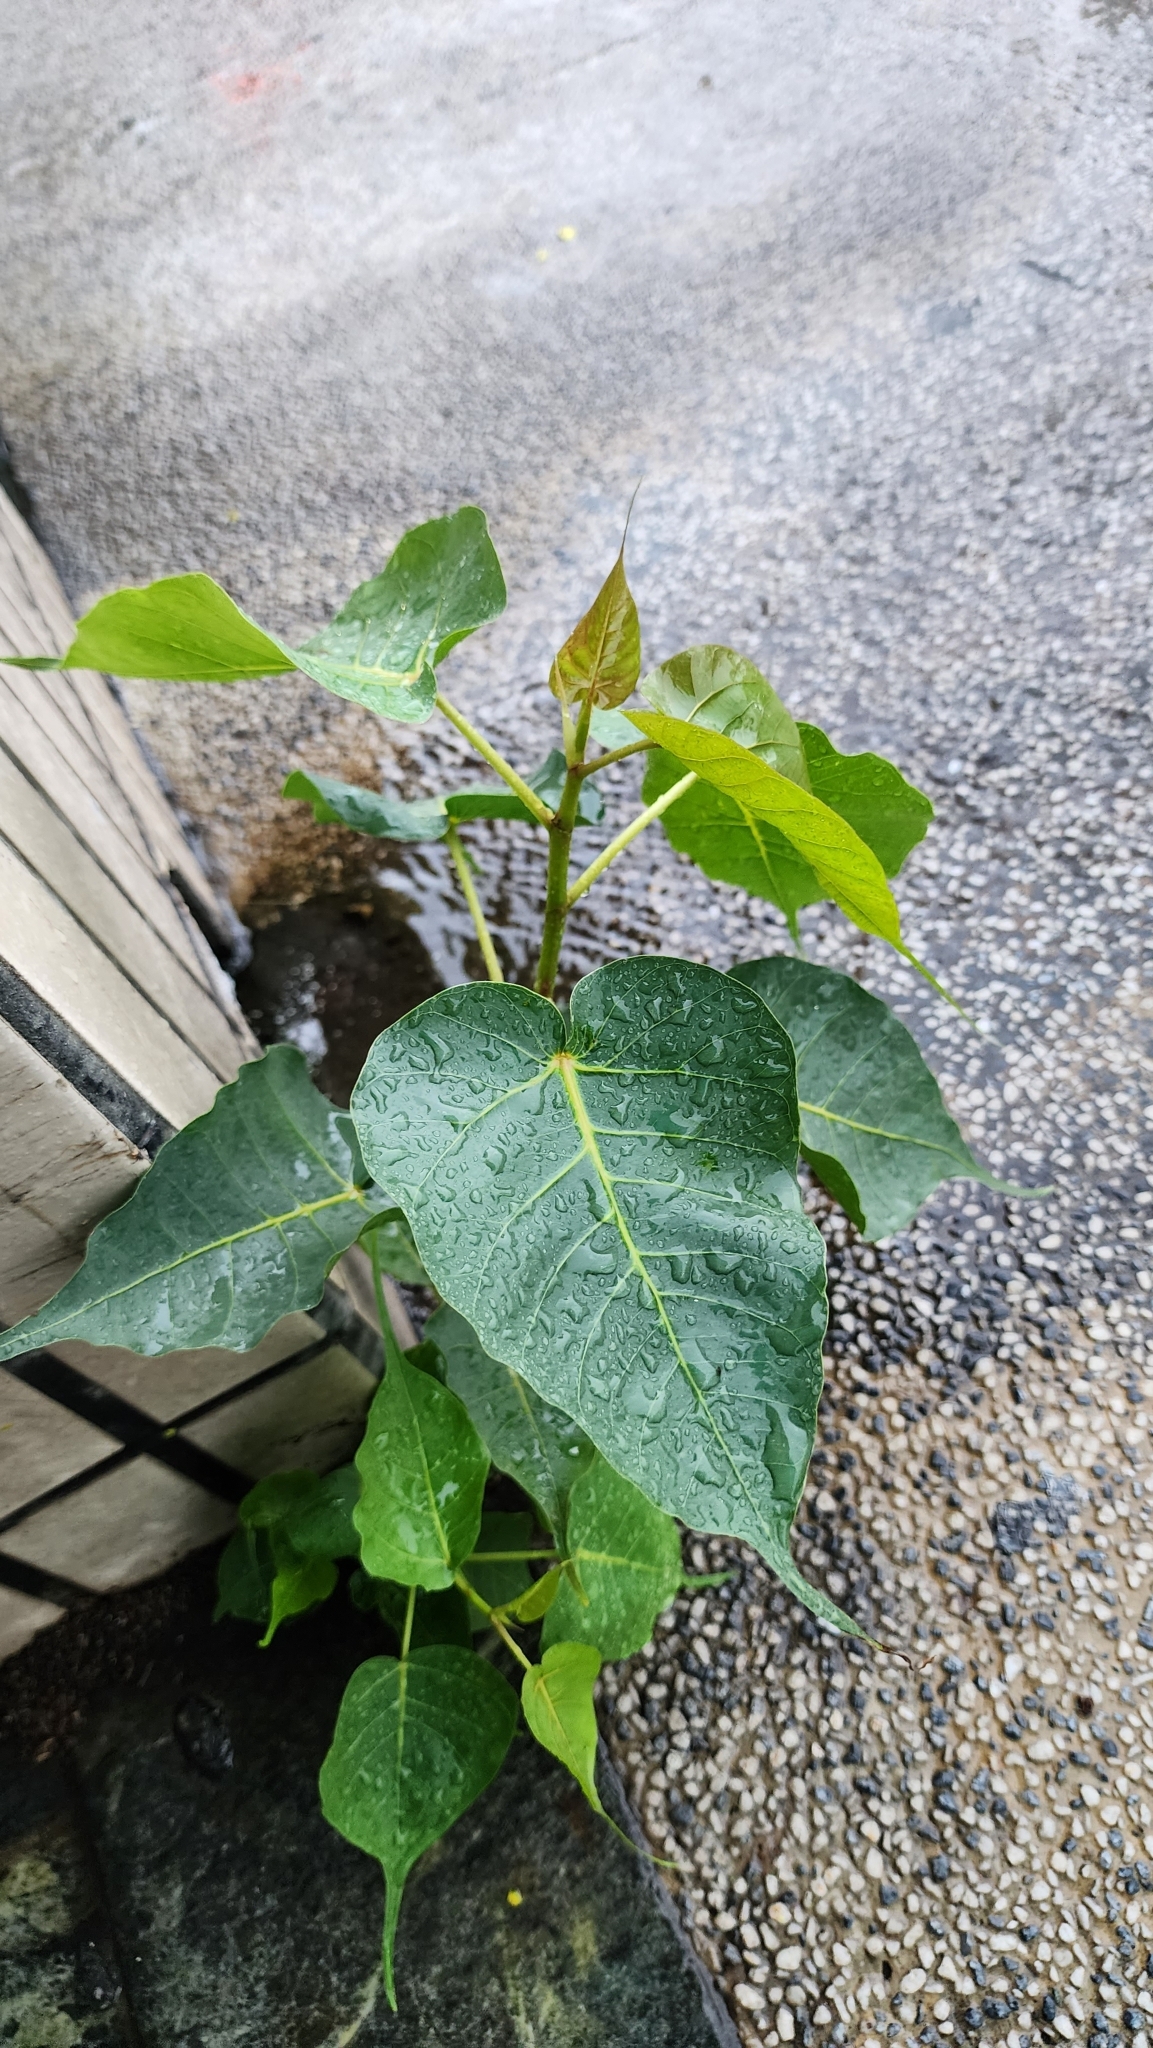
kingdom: Plantae
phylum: Tracheophyta
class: Magnoliopsida
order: Rosales
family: Moraceae
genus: Ficus
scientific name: Ficus religiosa
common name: Bodhi tree
